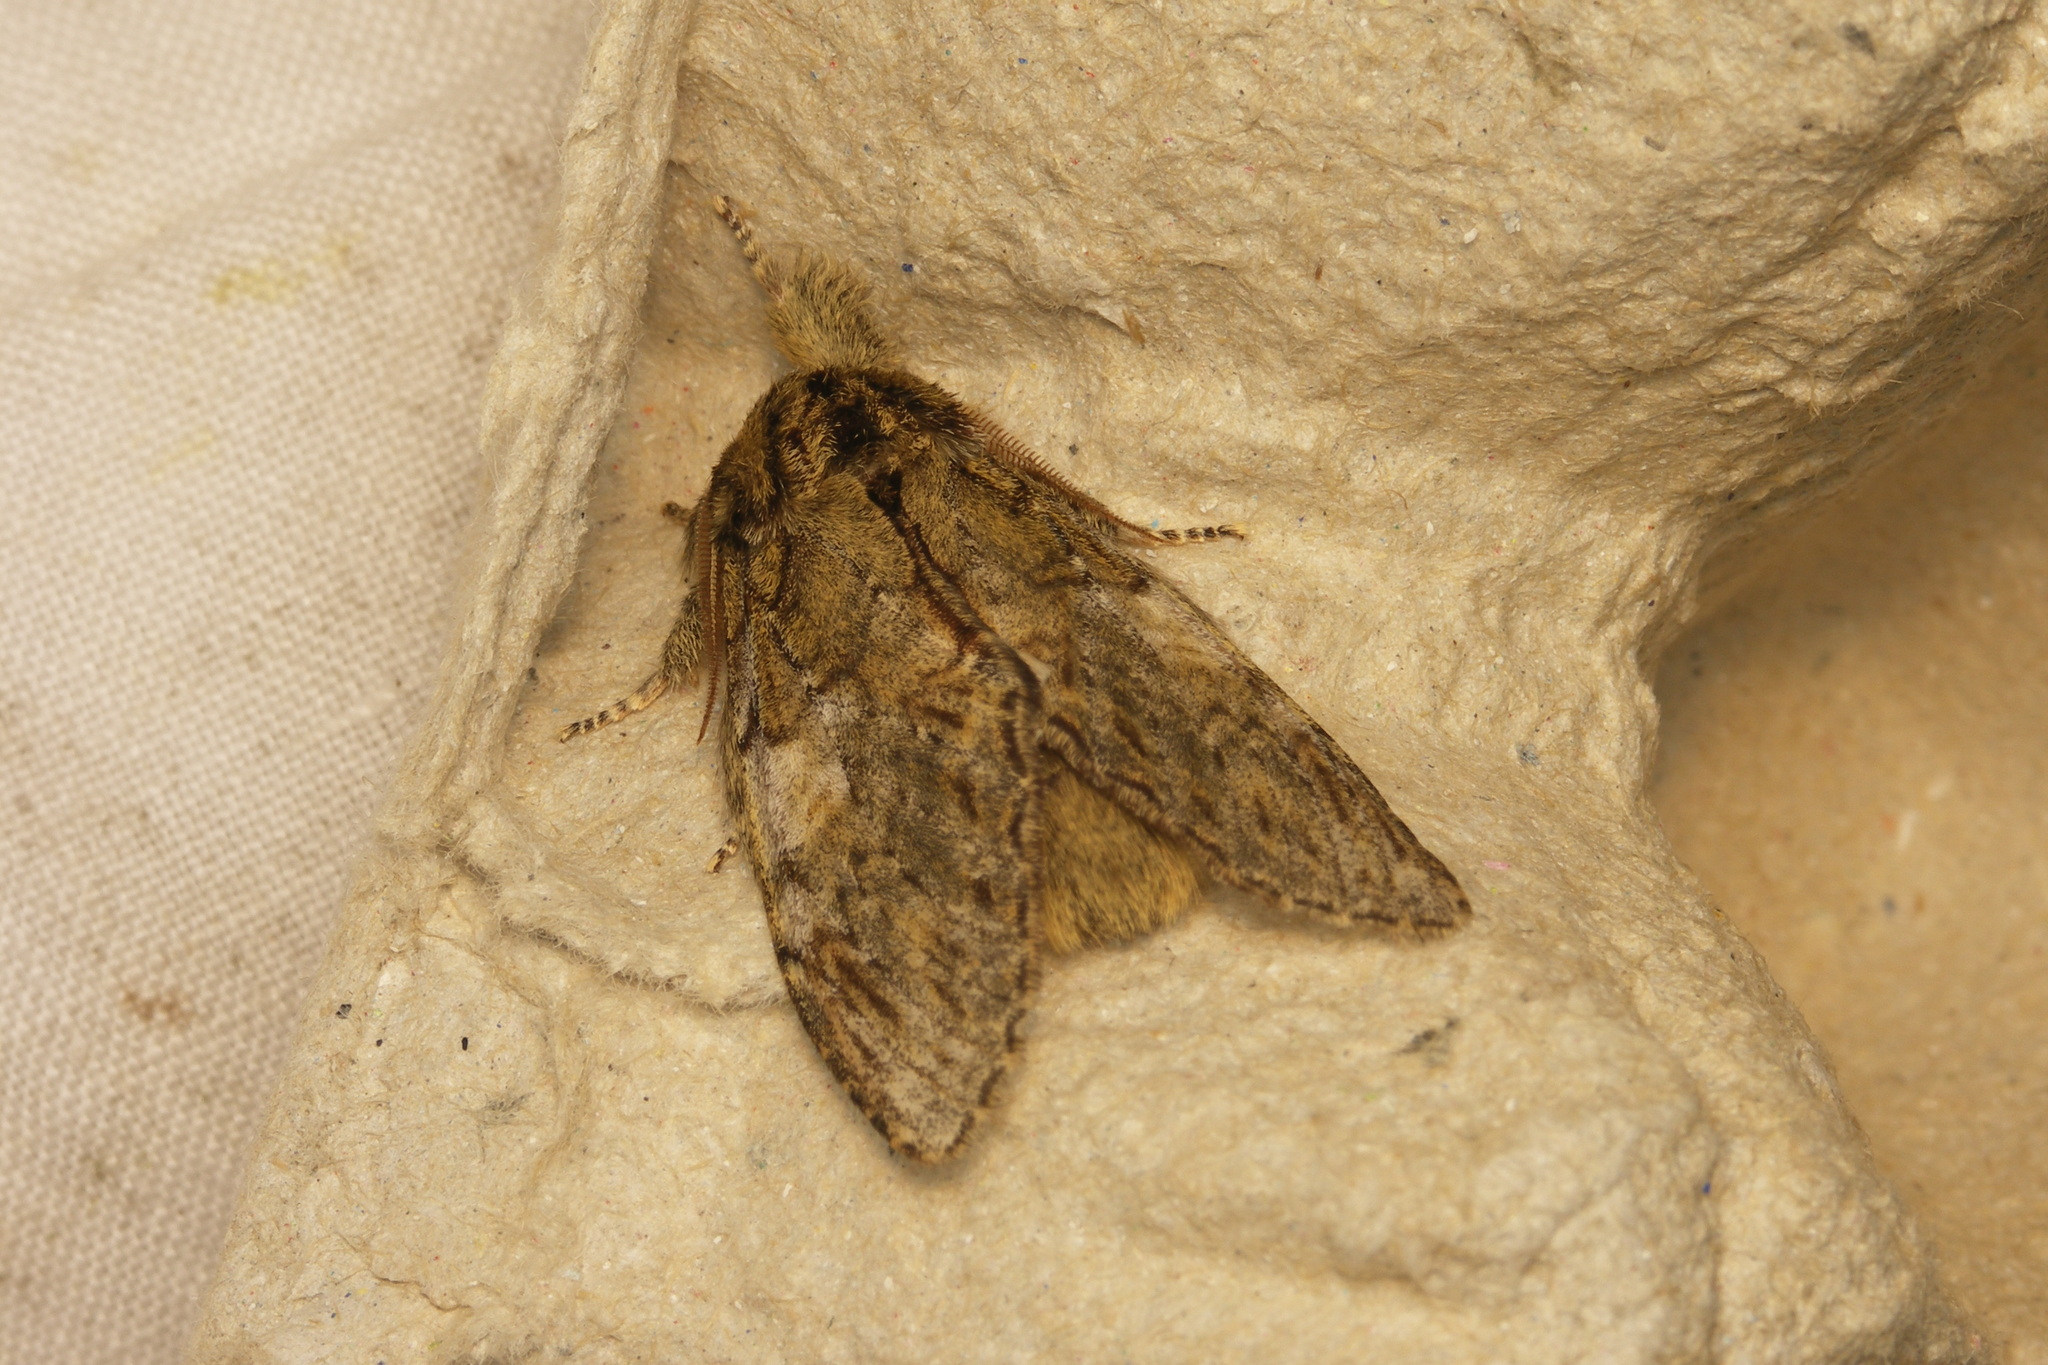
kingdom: Animalia
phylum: Arthropoda
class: Insecta
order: Lepidoptera
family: Notodontidae
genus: Peridea
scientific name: Peridea anceps
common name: Great prominent
